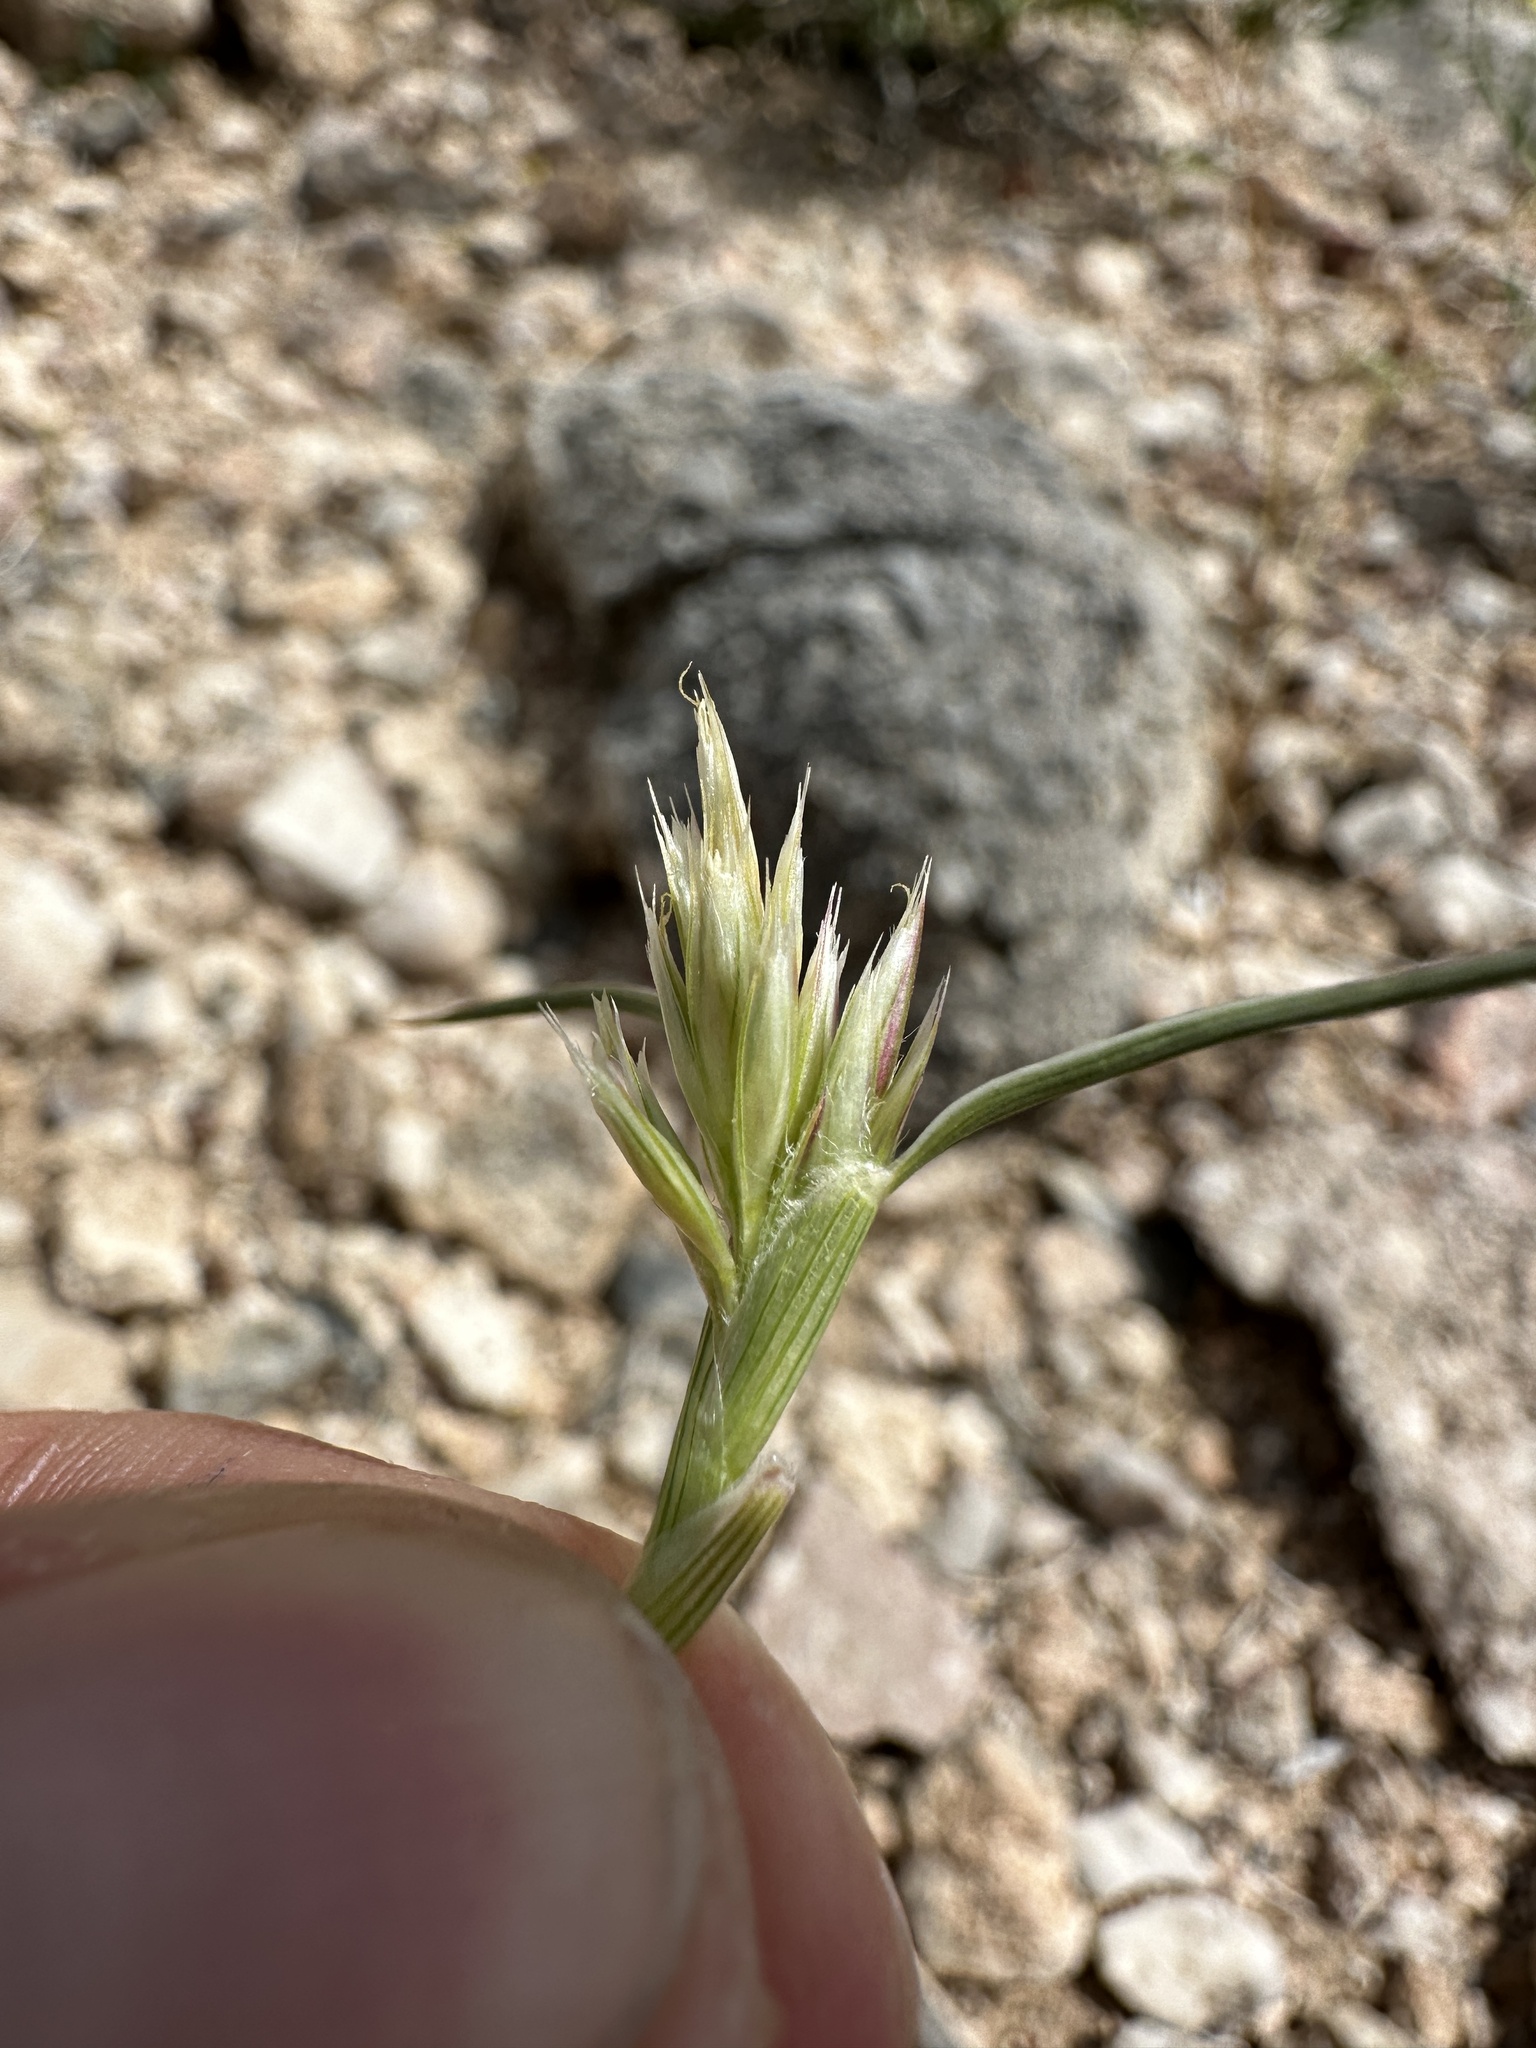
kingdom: Plantae
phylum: Tracheophyta
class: Liliopsida
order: Poales
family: Poaceae
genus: Blepharidachne
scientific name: Blepharidachne kingii
